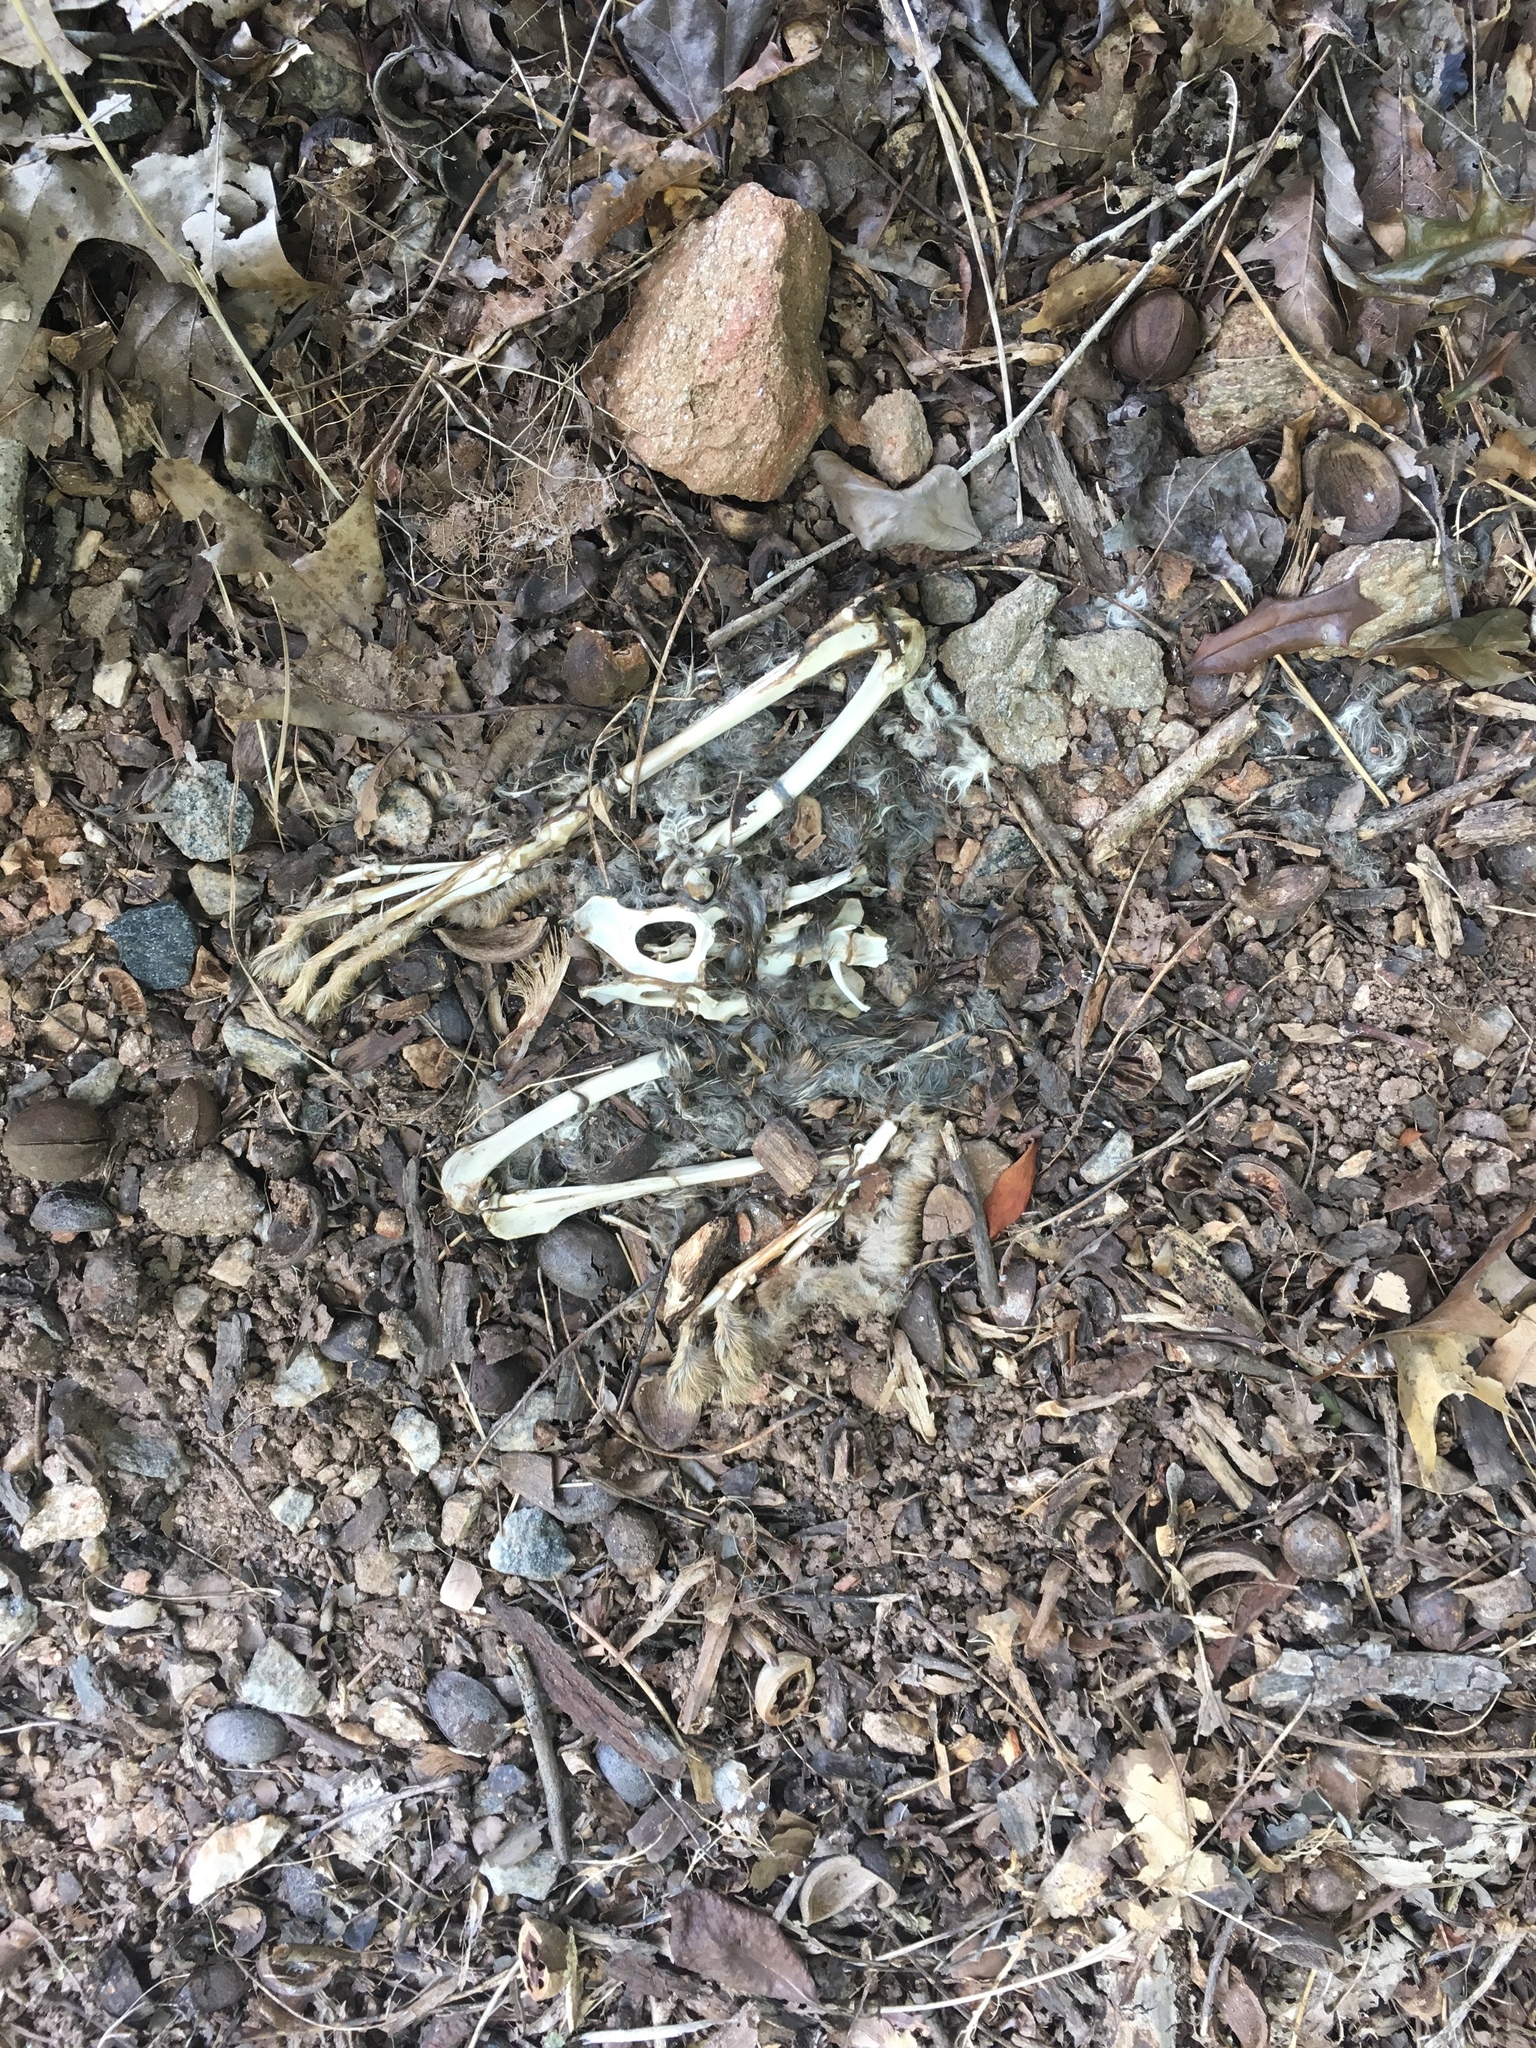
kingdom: Animalia
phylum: Chordata
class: Mammalia
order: Lagomorpha
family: Leporidae
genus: Sylvilagus
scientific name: Sylvilagus floridanus
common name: Eastern cottontail
